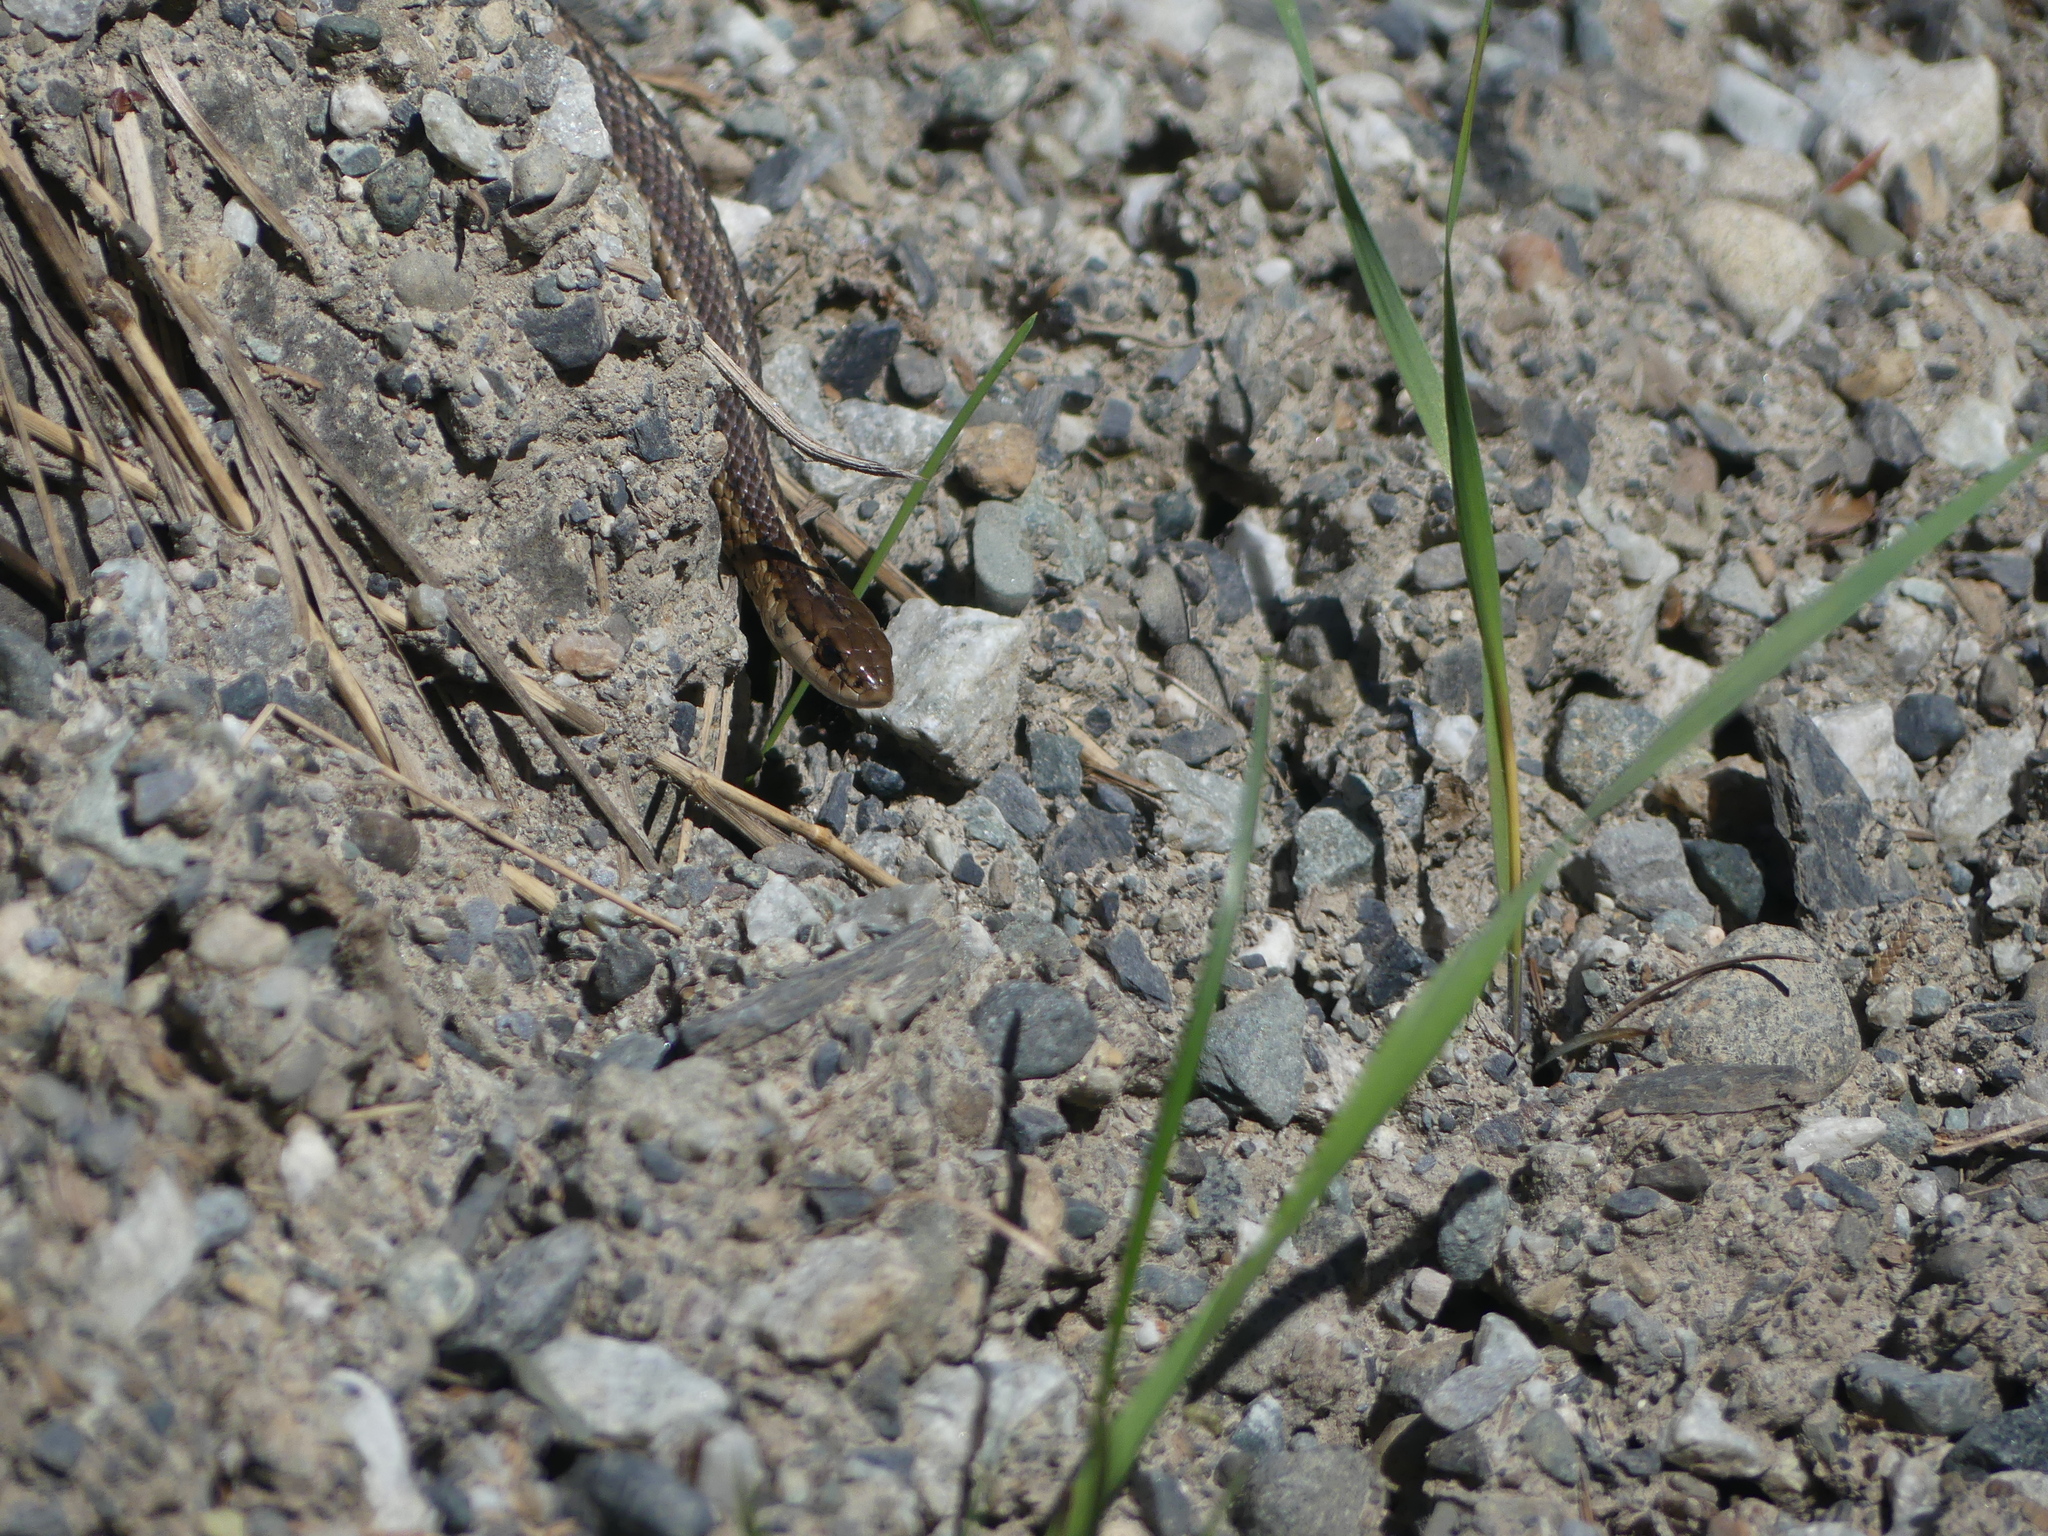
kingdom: Animalia
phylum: Chordata
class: Squamata
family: Colubridae
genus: Thamnophis
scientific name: Thamnophis ordinoides
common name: Northwestern garter snake
